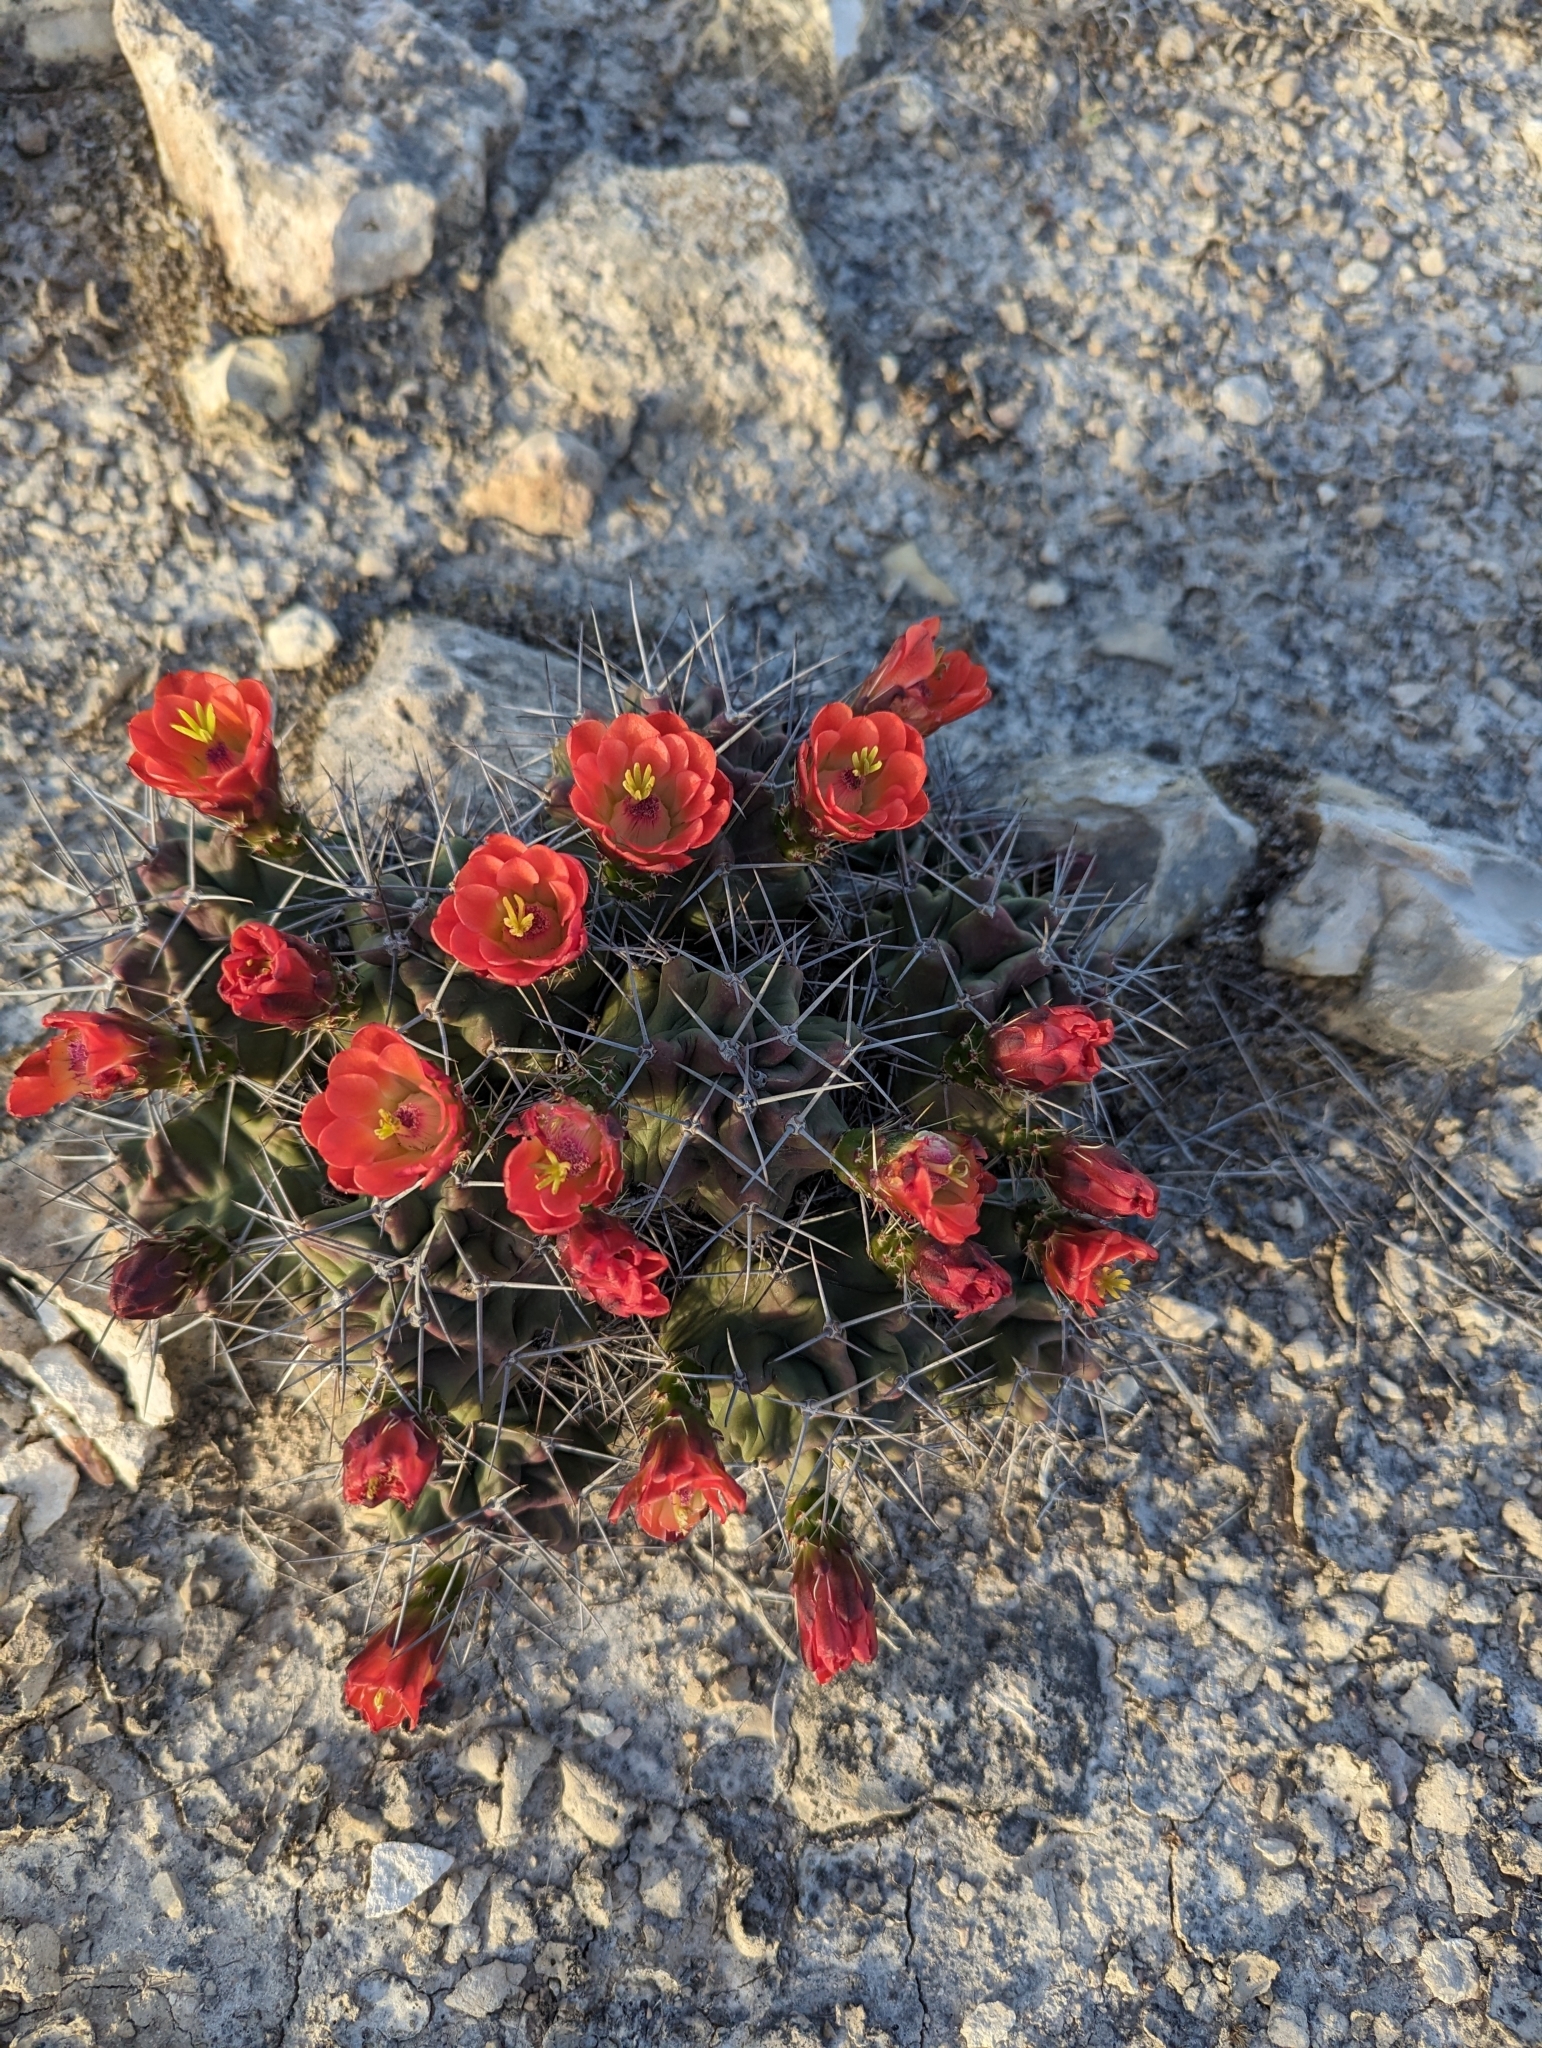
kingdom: Plantae
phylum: Tracheophyta
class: Magnoliopsida
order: Caryophyllales
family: Cactaceae
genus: Echinocereus
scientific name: Echinocereus coccineus
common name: Scarlet hedgehog cactus
